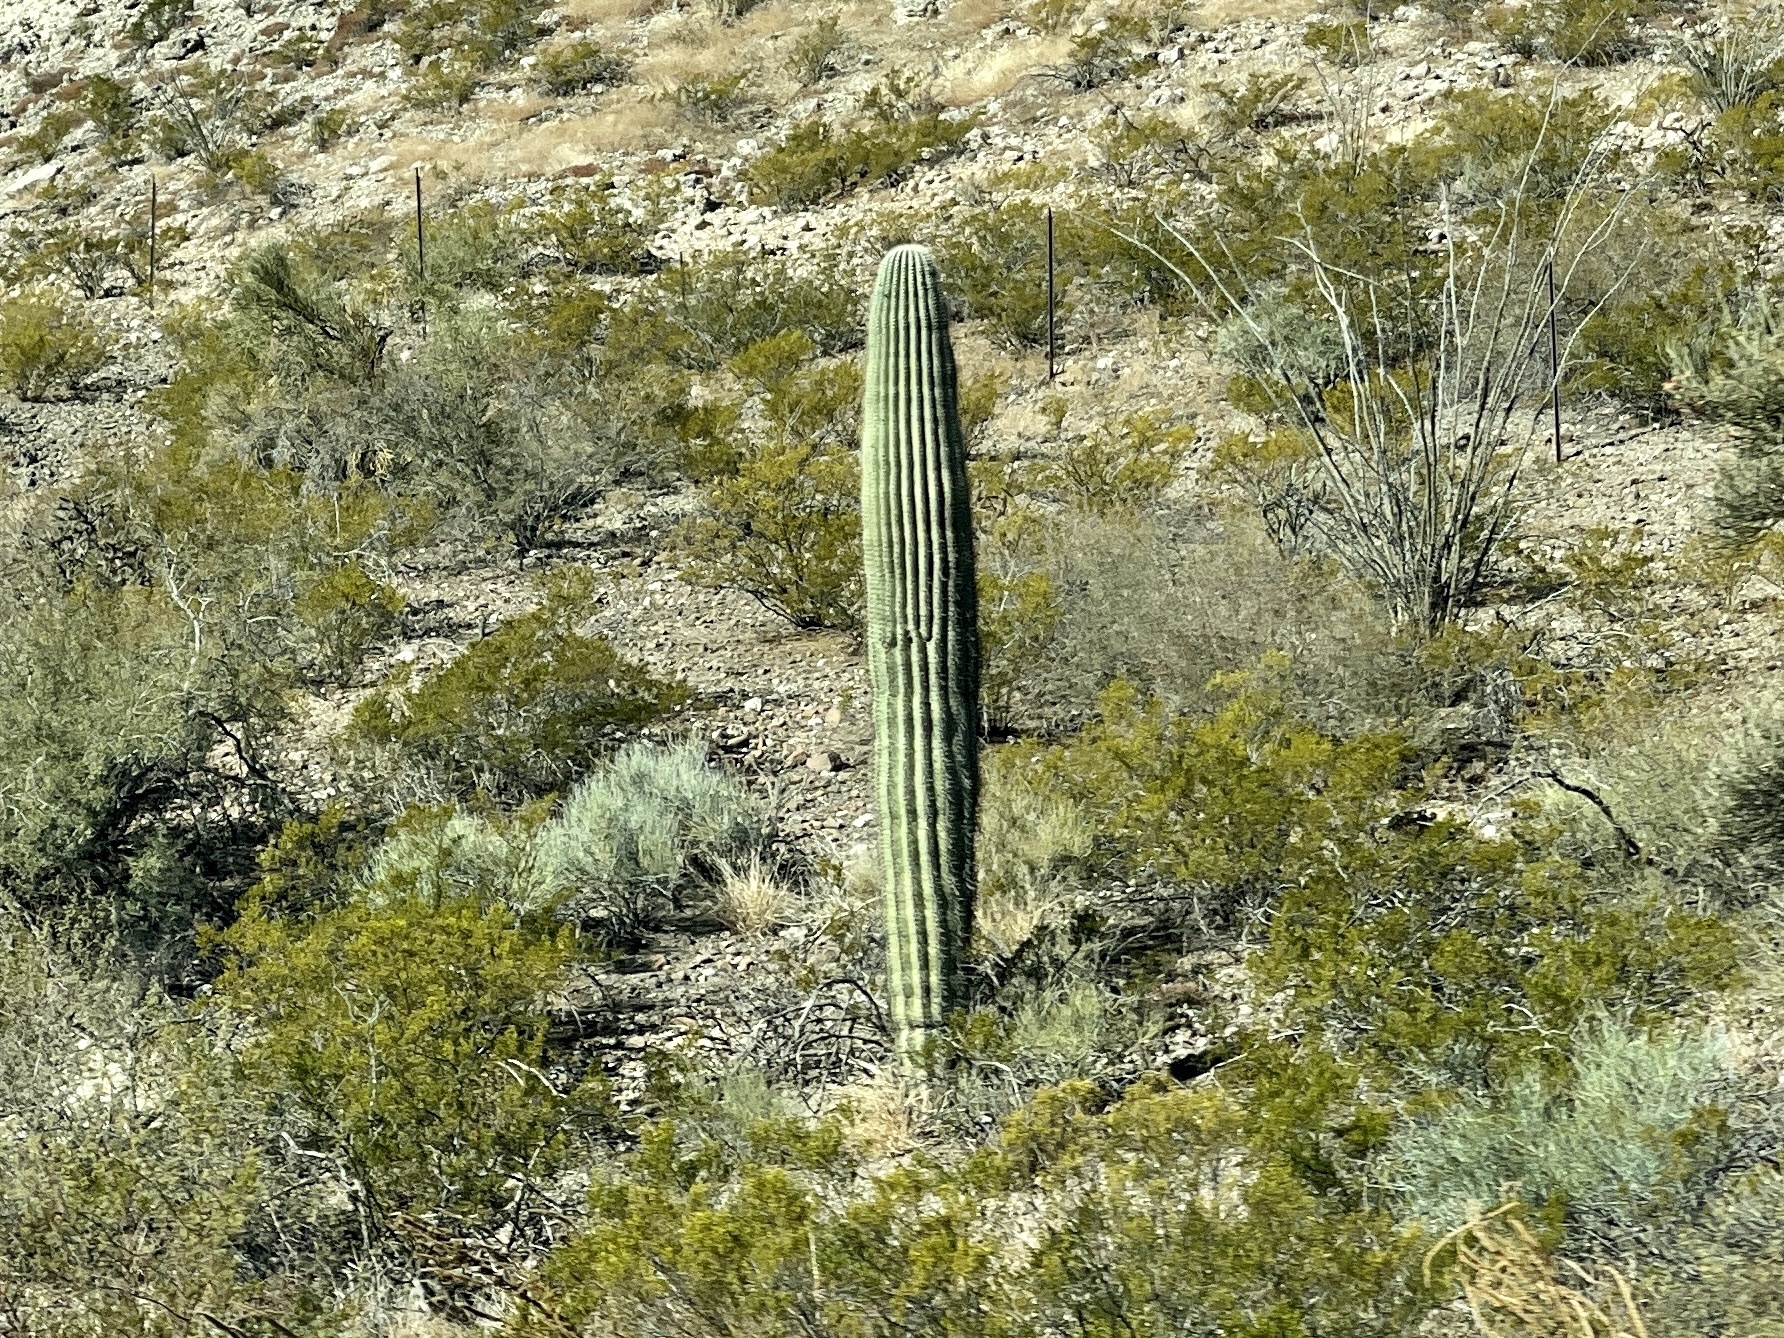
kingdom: Plantae
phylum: Tracheophyta
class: Magnoliopsida
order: Caryophyllales
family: Cactaceae
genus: Carnegiea
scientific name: Carnegiea gigantea
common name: Saguaro
